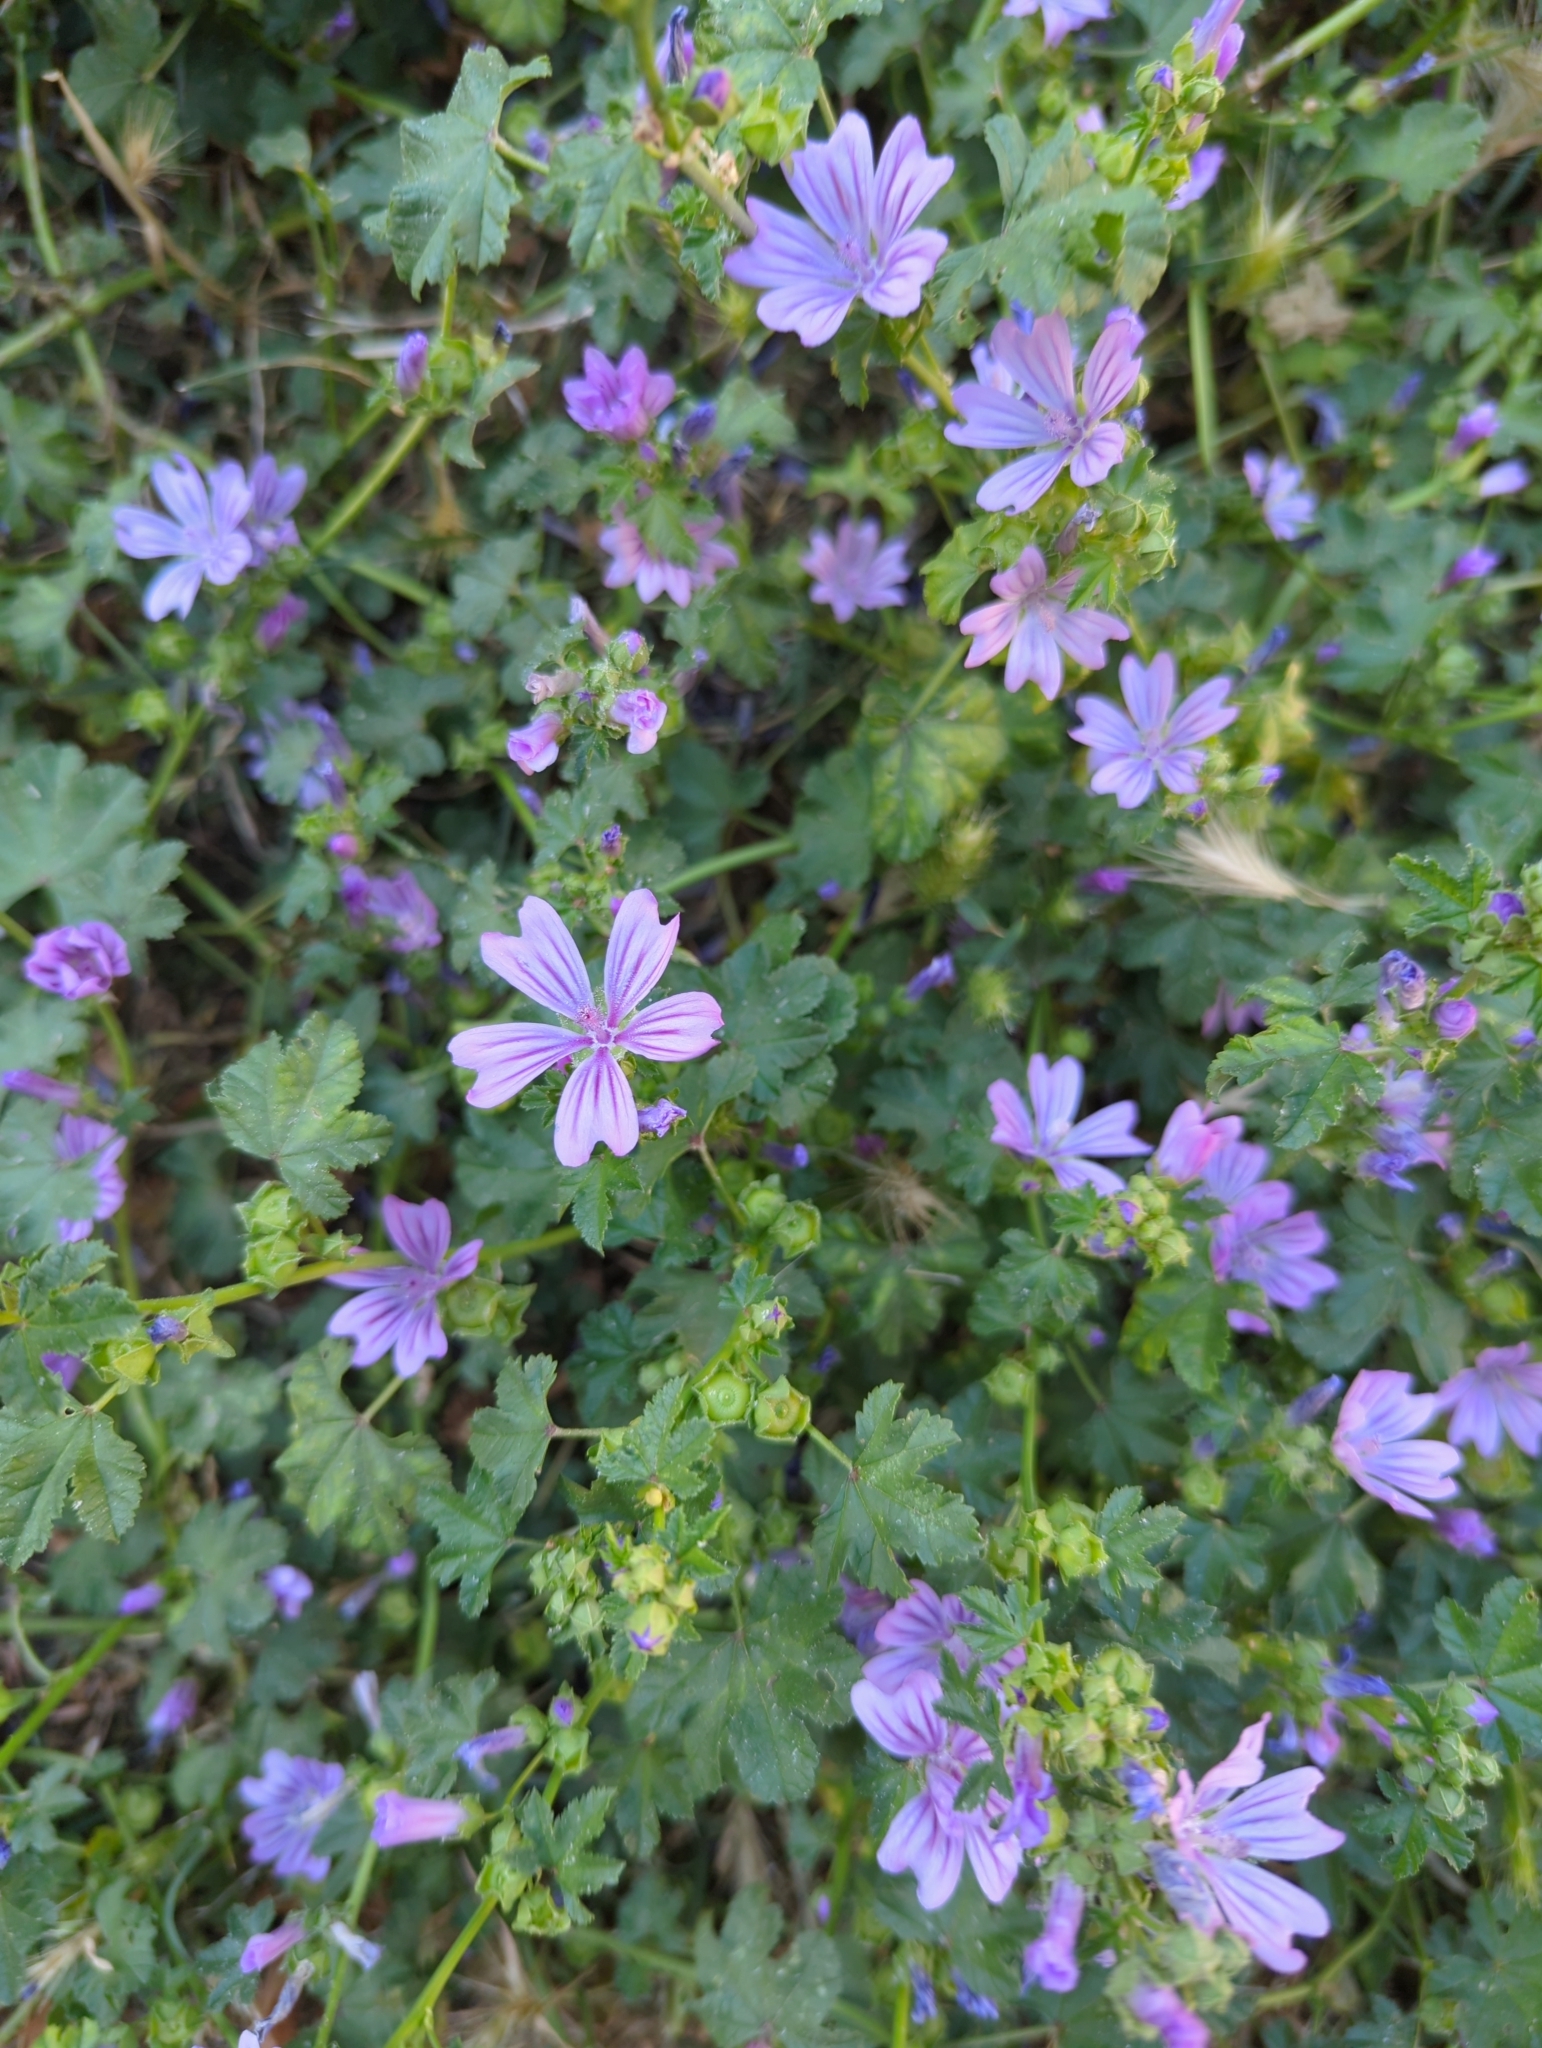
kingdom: Plantae
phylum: Tracheophyta
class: Magnoliopsida
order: Malvales
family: Malvaceae
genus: Malva
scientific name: Malva sylvestris
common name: Common mallow
